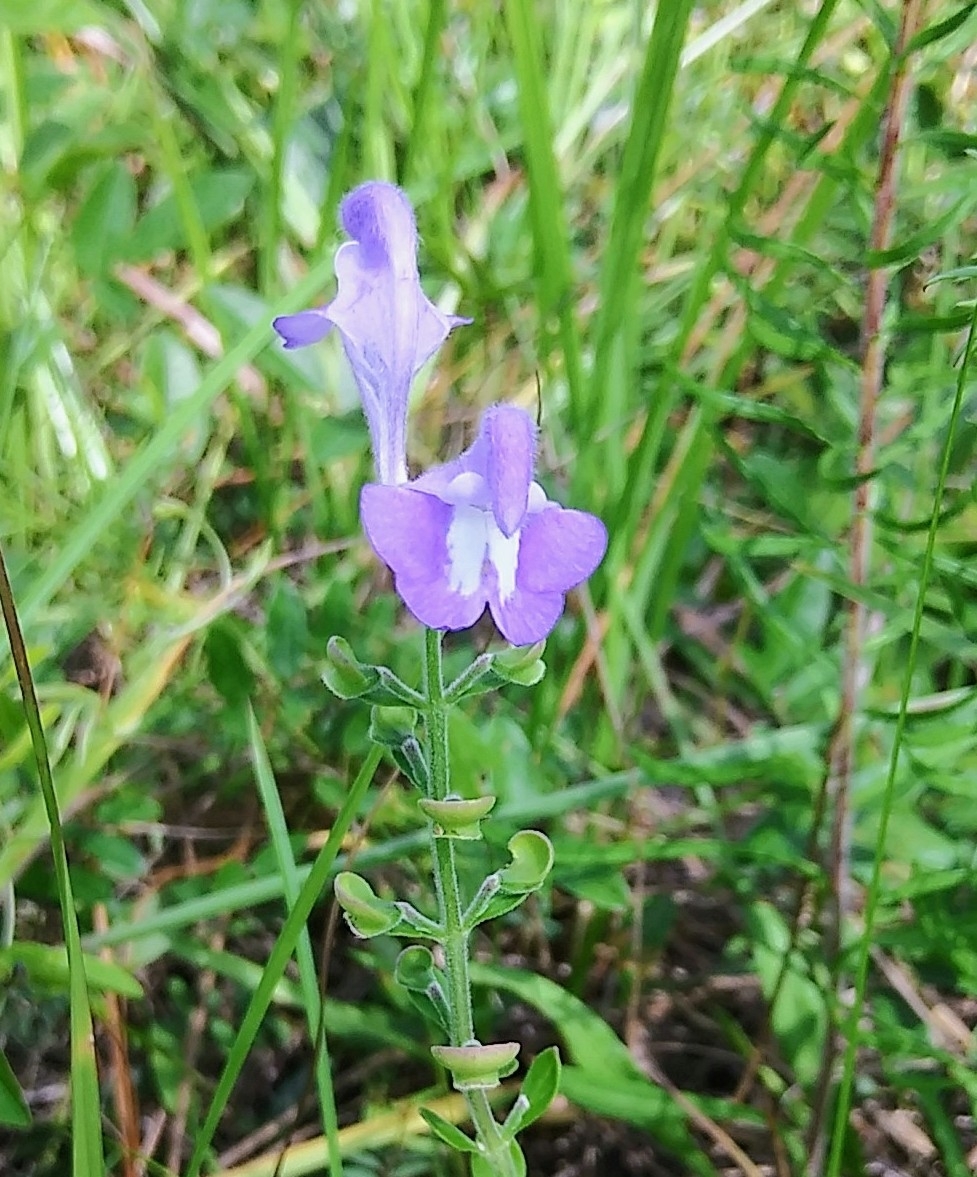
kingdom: Plantae
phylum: Tracheophyta
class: Magnoliopsida
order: Lamiales
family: Lamiaceae
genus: Scutellaria
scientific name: Scutellaria integrifolia
